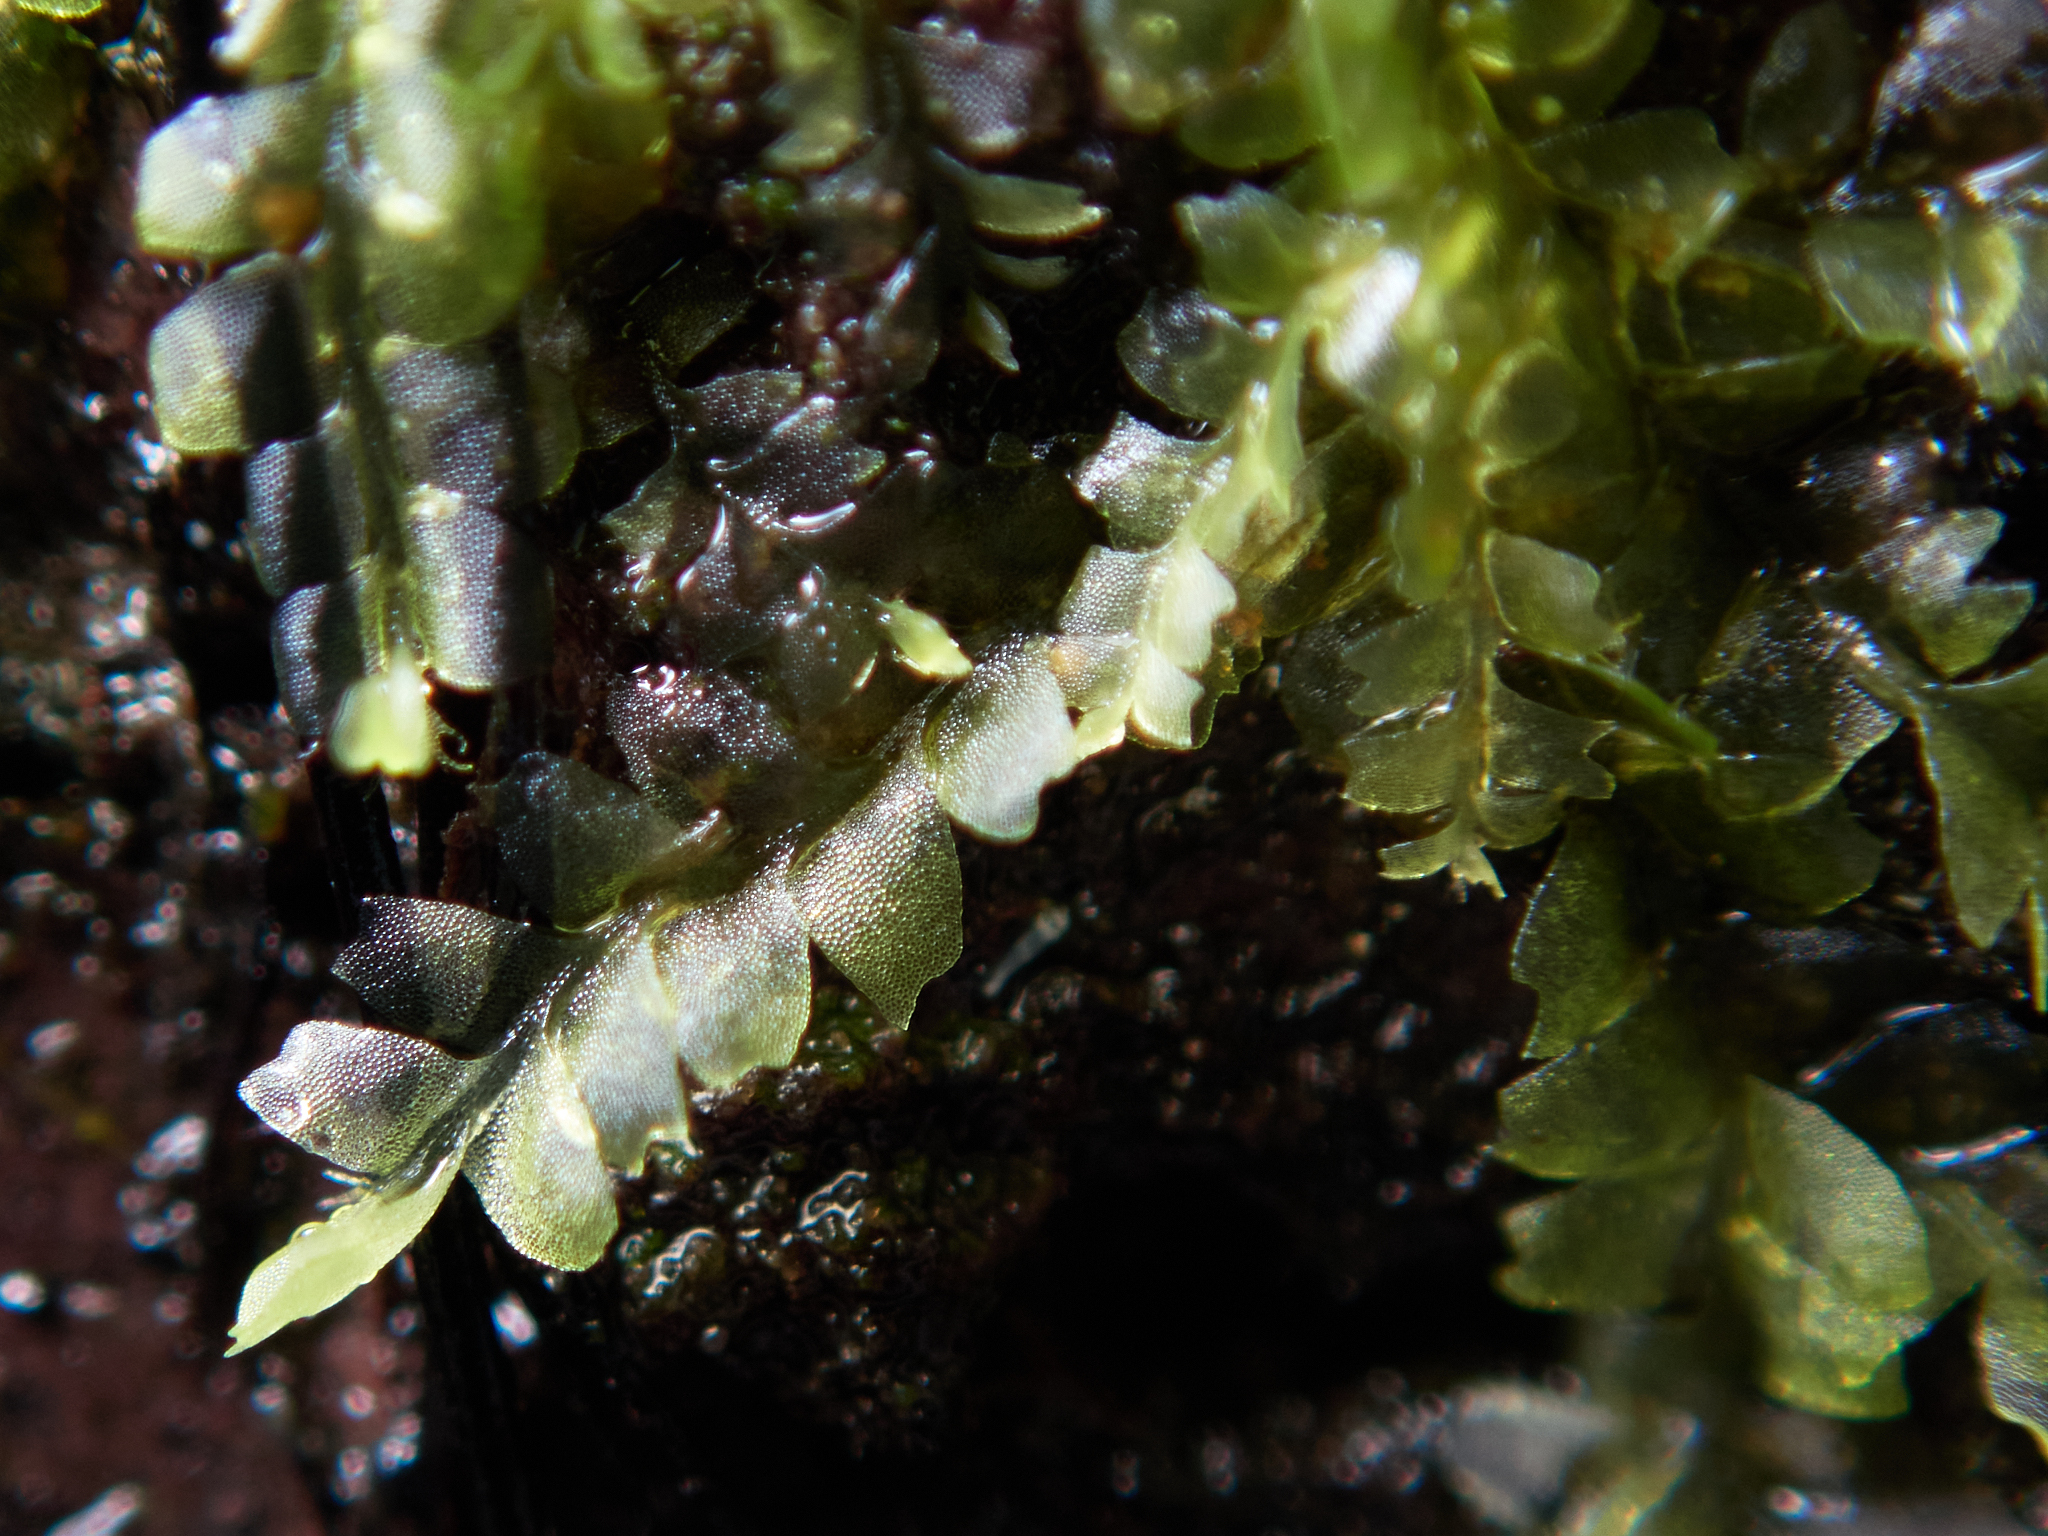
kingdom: Plantae
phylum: Marchantiophyta
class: Jungermanniopsida
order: Jungermanniales
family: Lophocoleaceae
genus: Lophocolea
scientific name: Lophocolea heterophylla
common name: Variable-leaved crestwort
